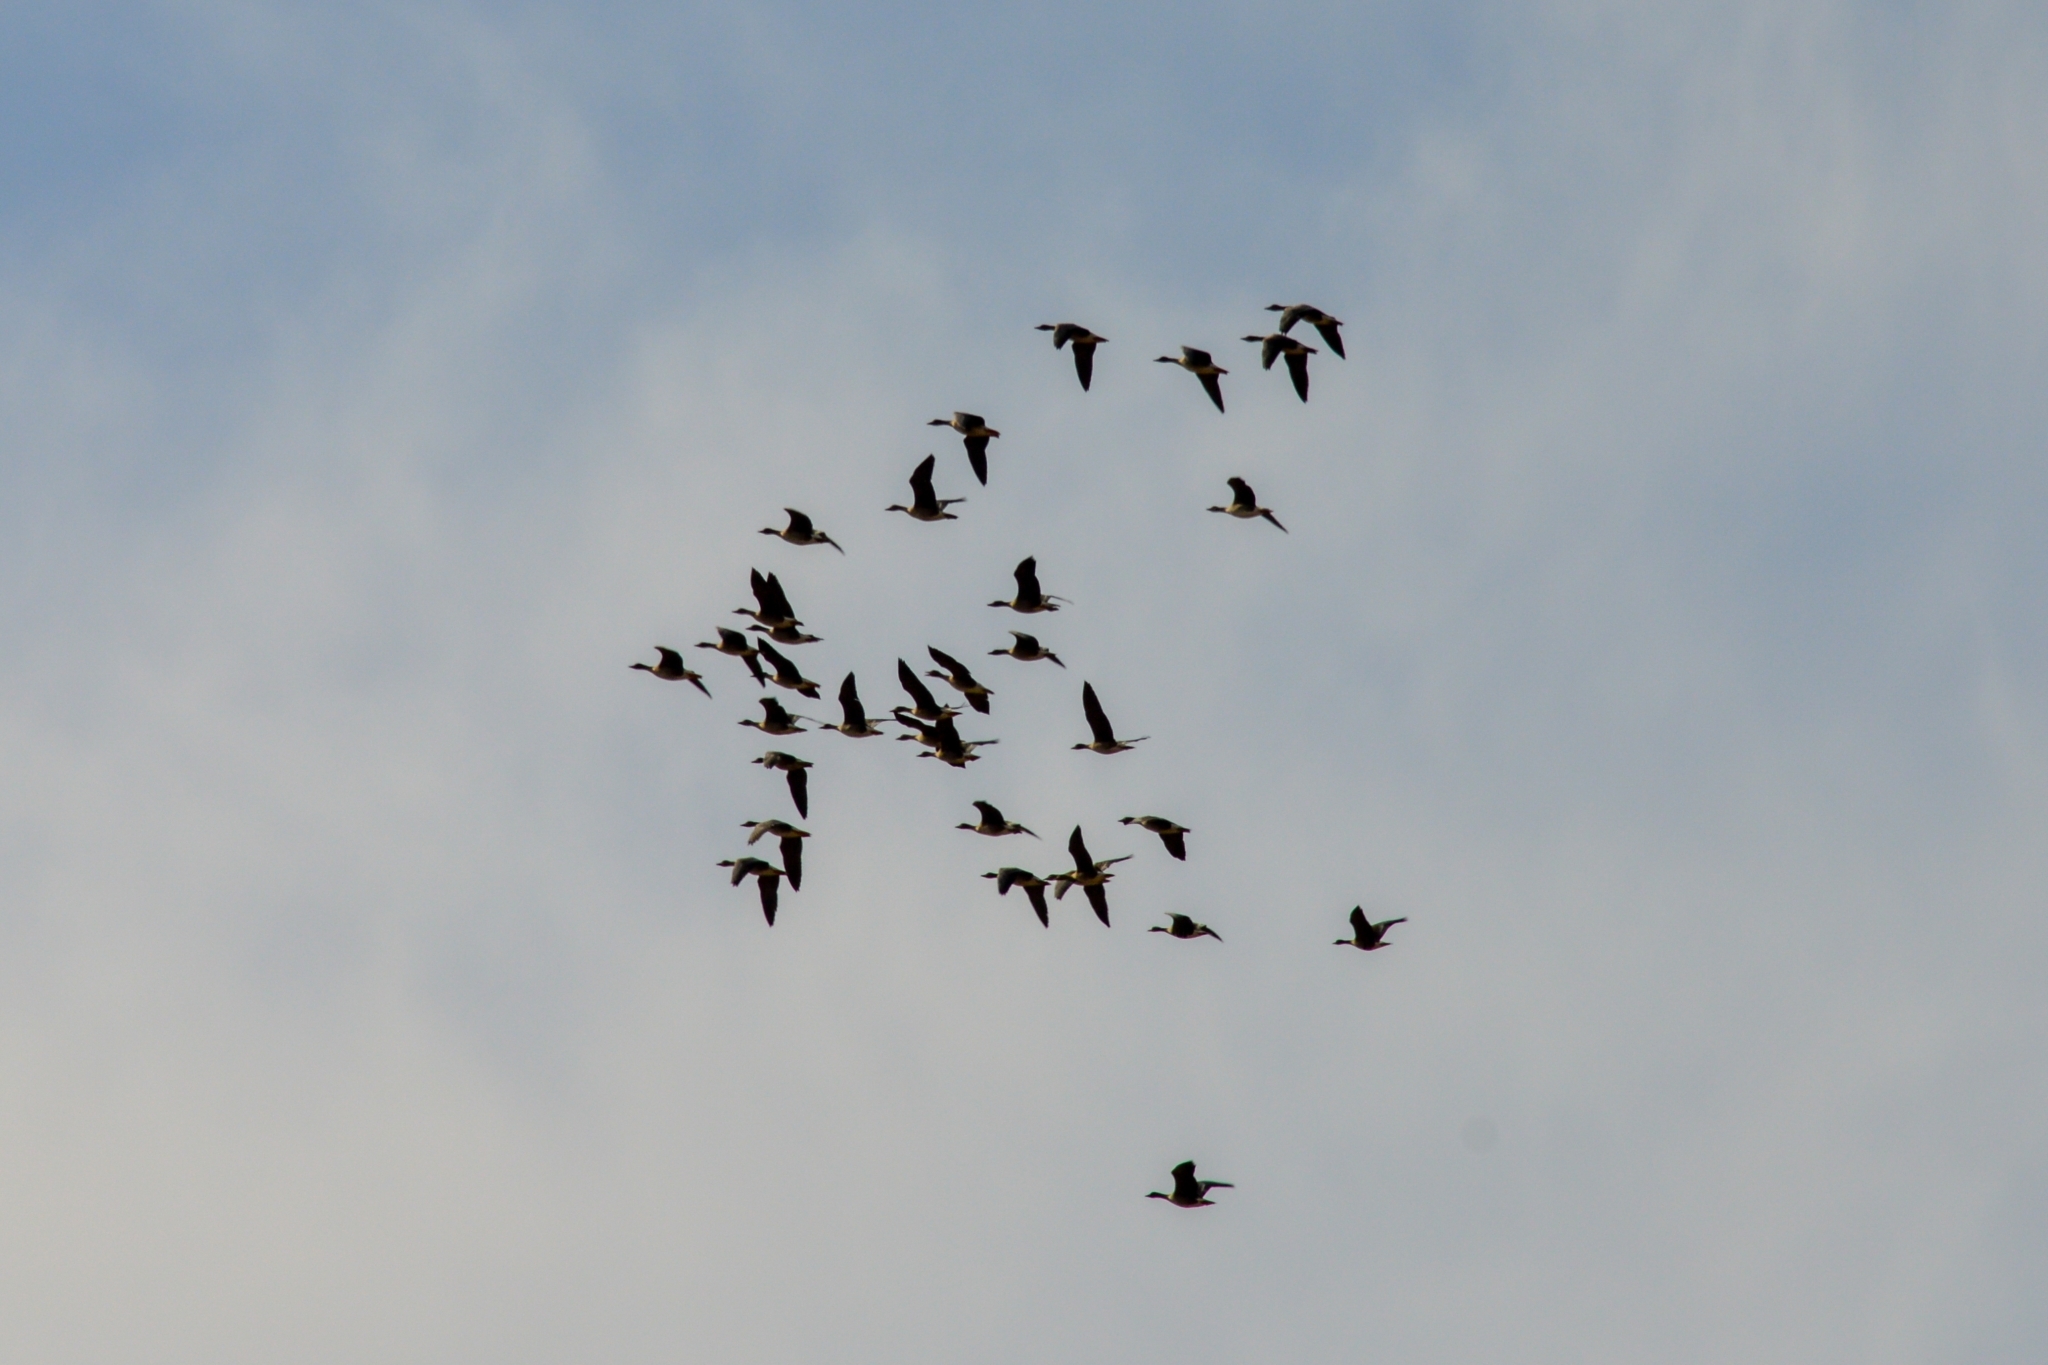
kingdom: Animalia
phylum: Chordata
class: Aves
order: Anseriformes
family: Anatidae
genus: Anser
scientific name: Anser serrirostris
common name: Tundra bean goose
